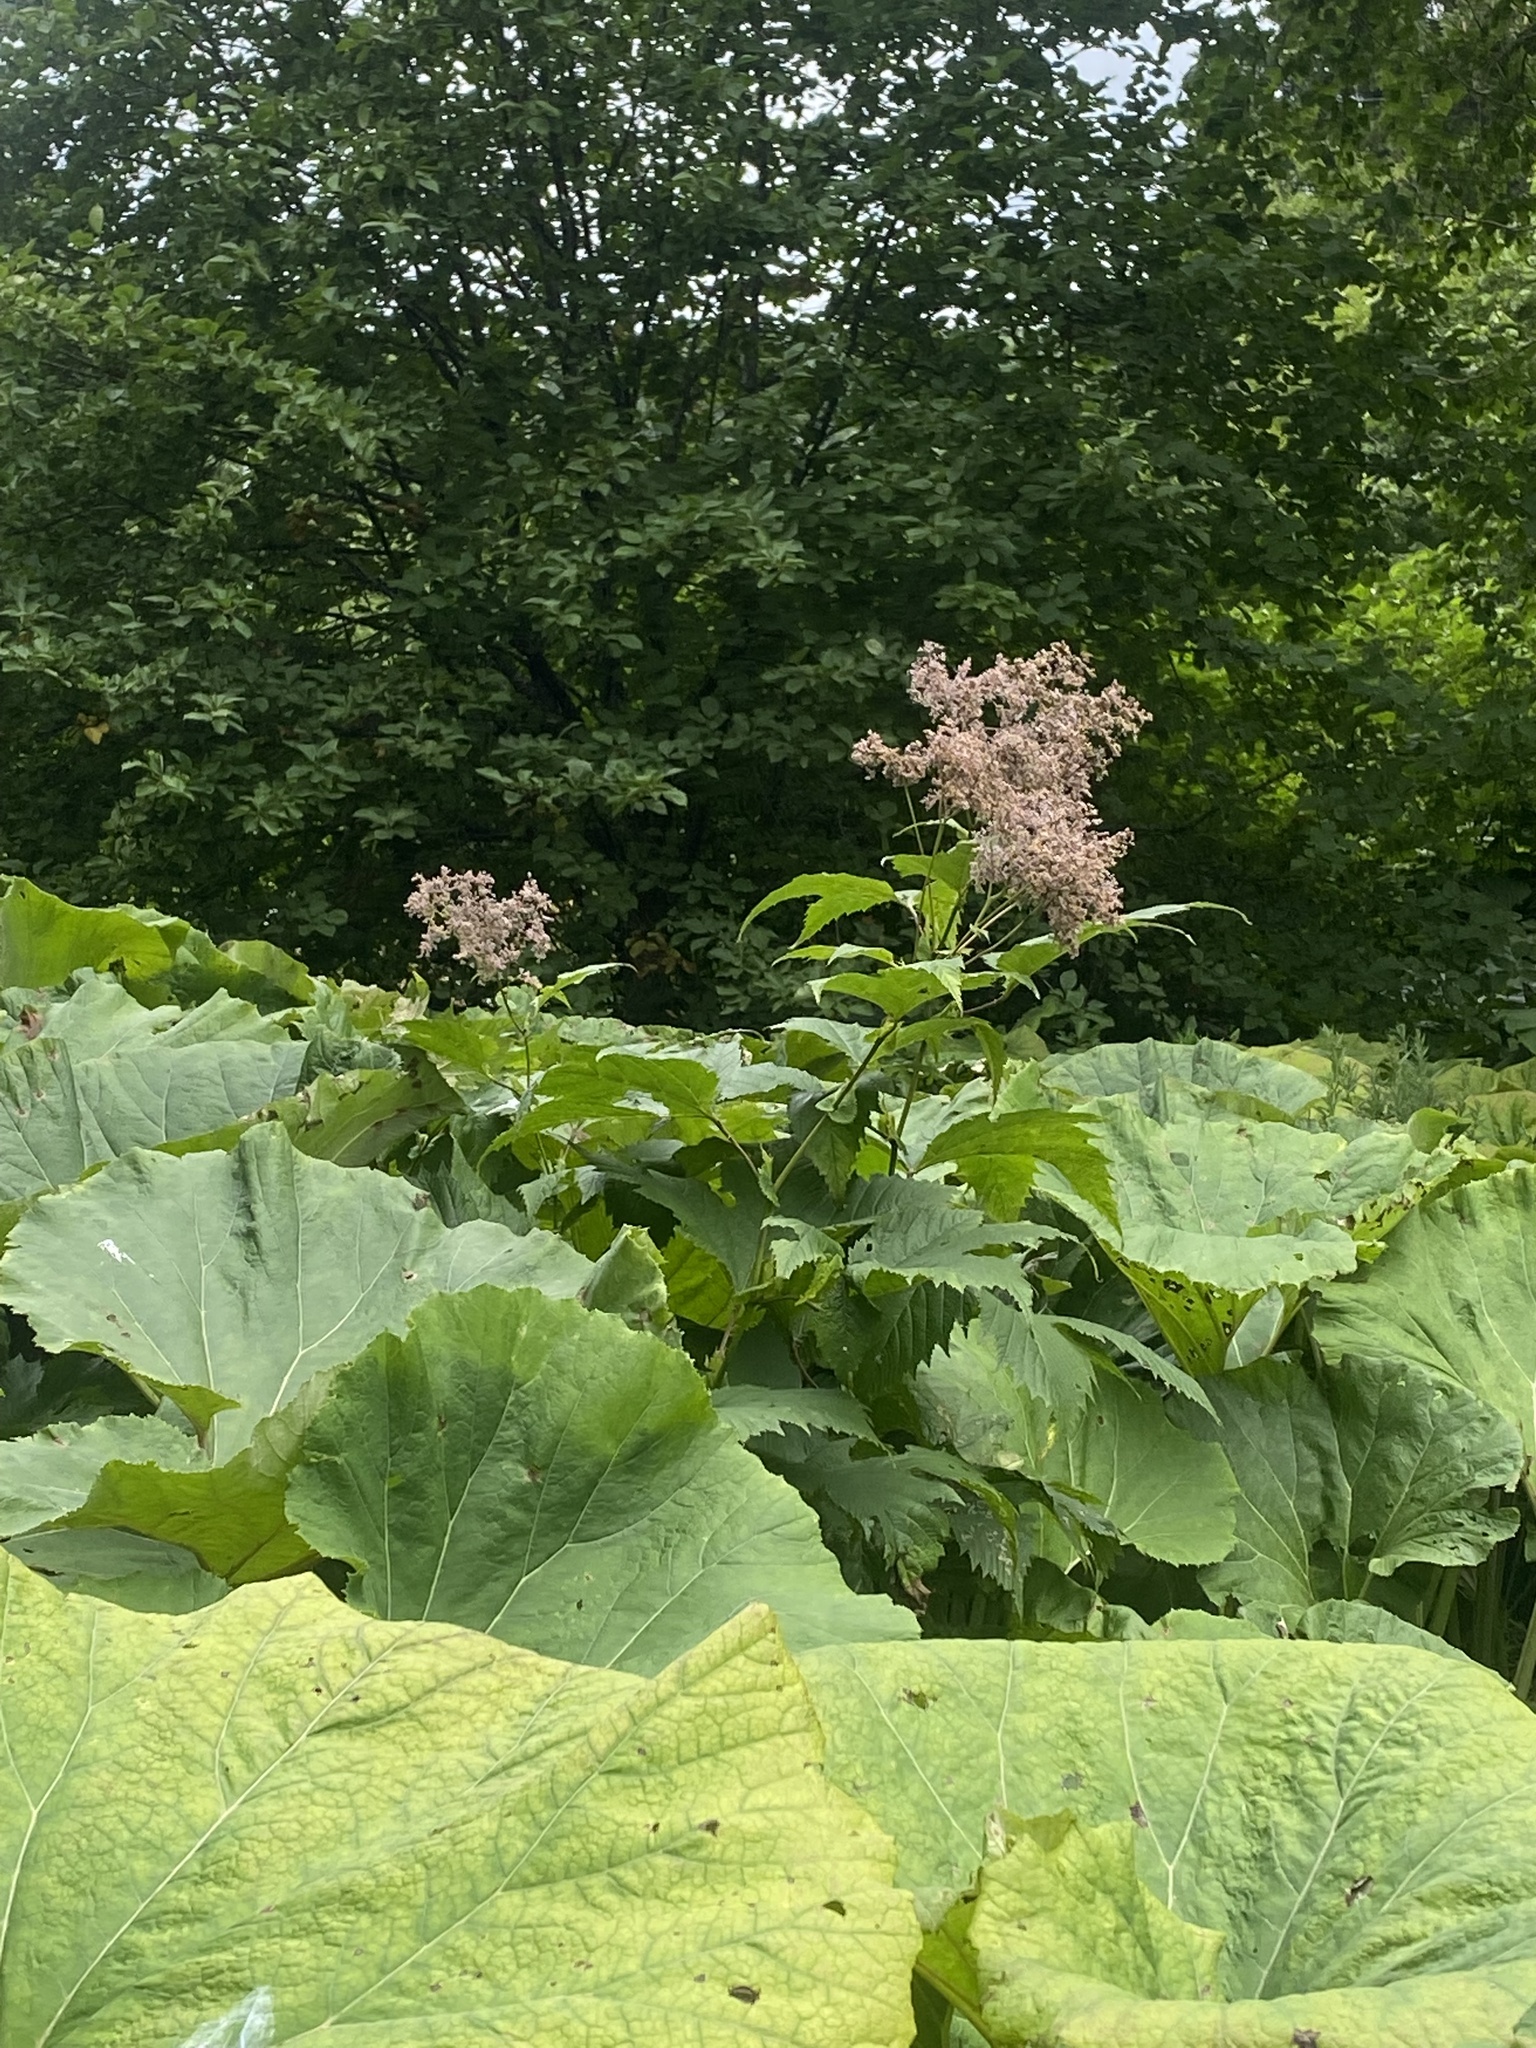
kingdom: Plantae
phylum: Tracheophyta
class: Magnoliopsida
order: Rosales
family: Rosaceae
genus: Filipendula
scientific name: Filipendula camtschatica
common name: Giant meadowsweet
